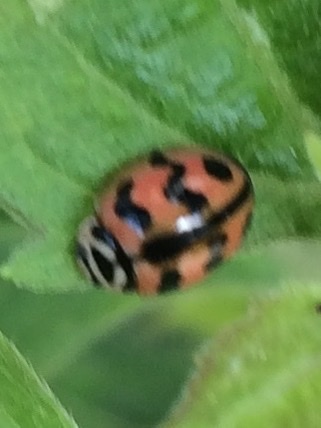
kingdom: Animalia
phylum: Arthropoda
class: Insecta
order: Coleoptera
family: Coccinellidae
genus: Cheilomenes
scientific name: Cheilomenes sexmaculata
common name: Ladybird beetle
